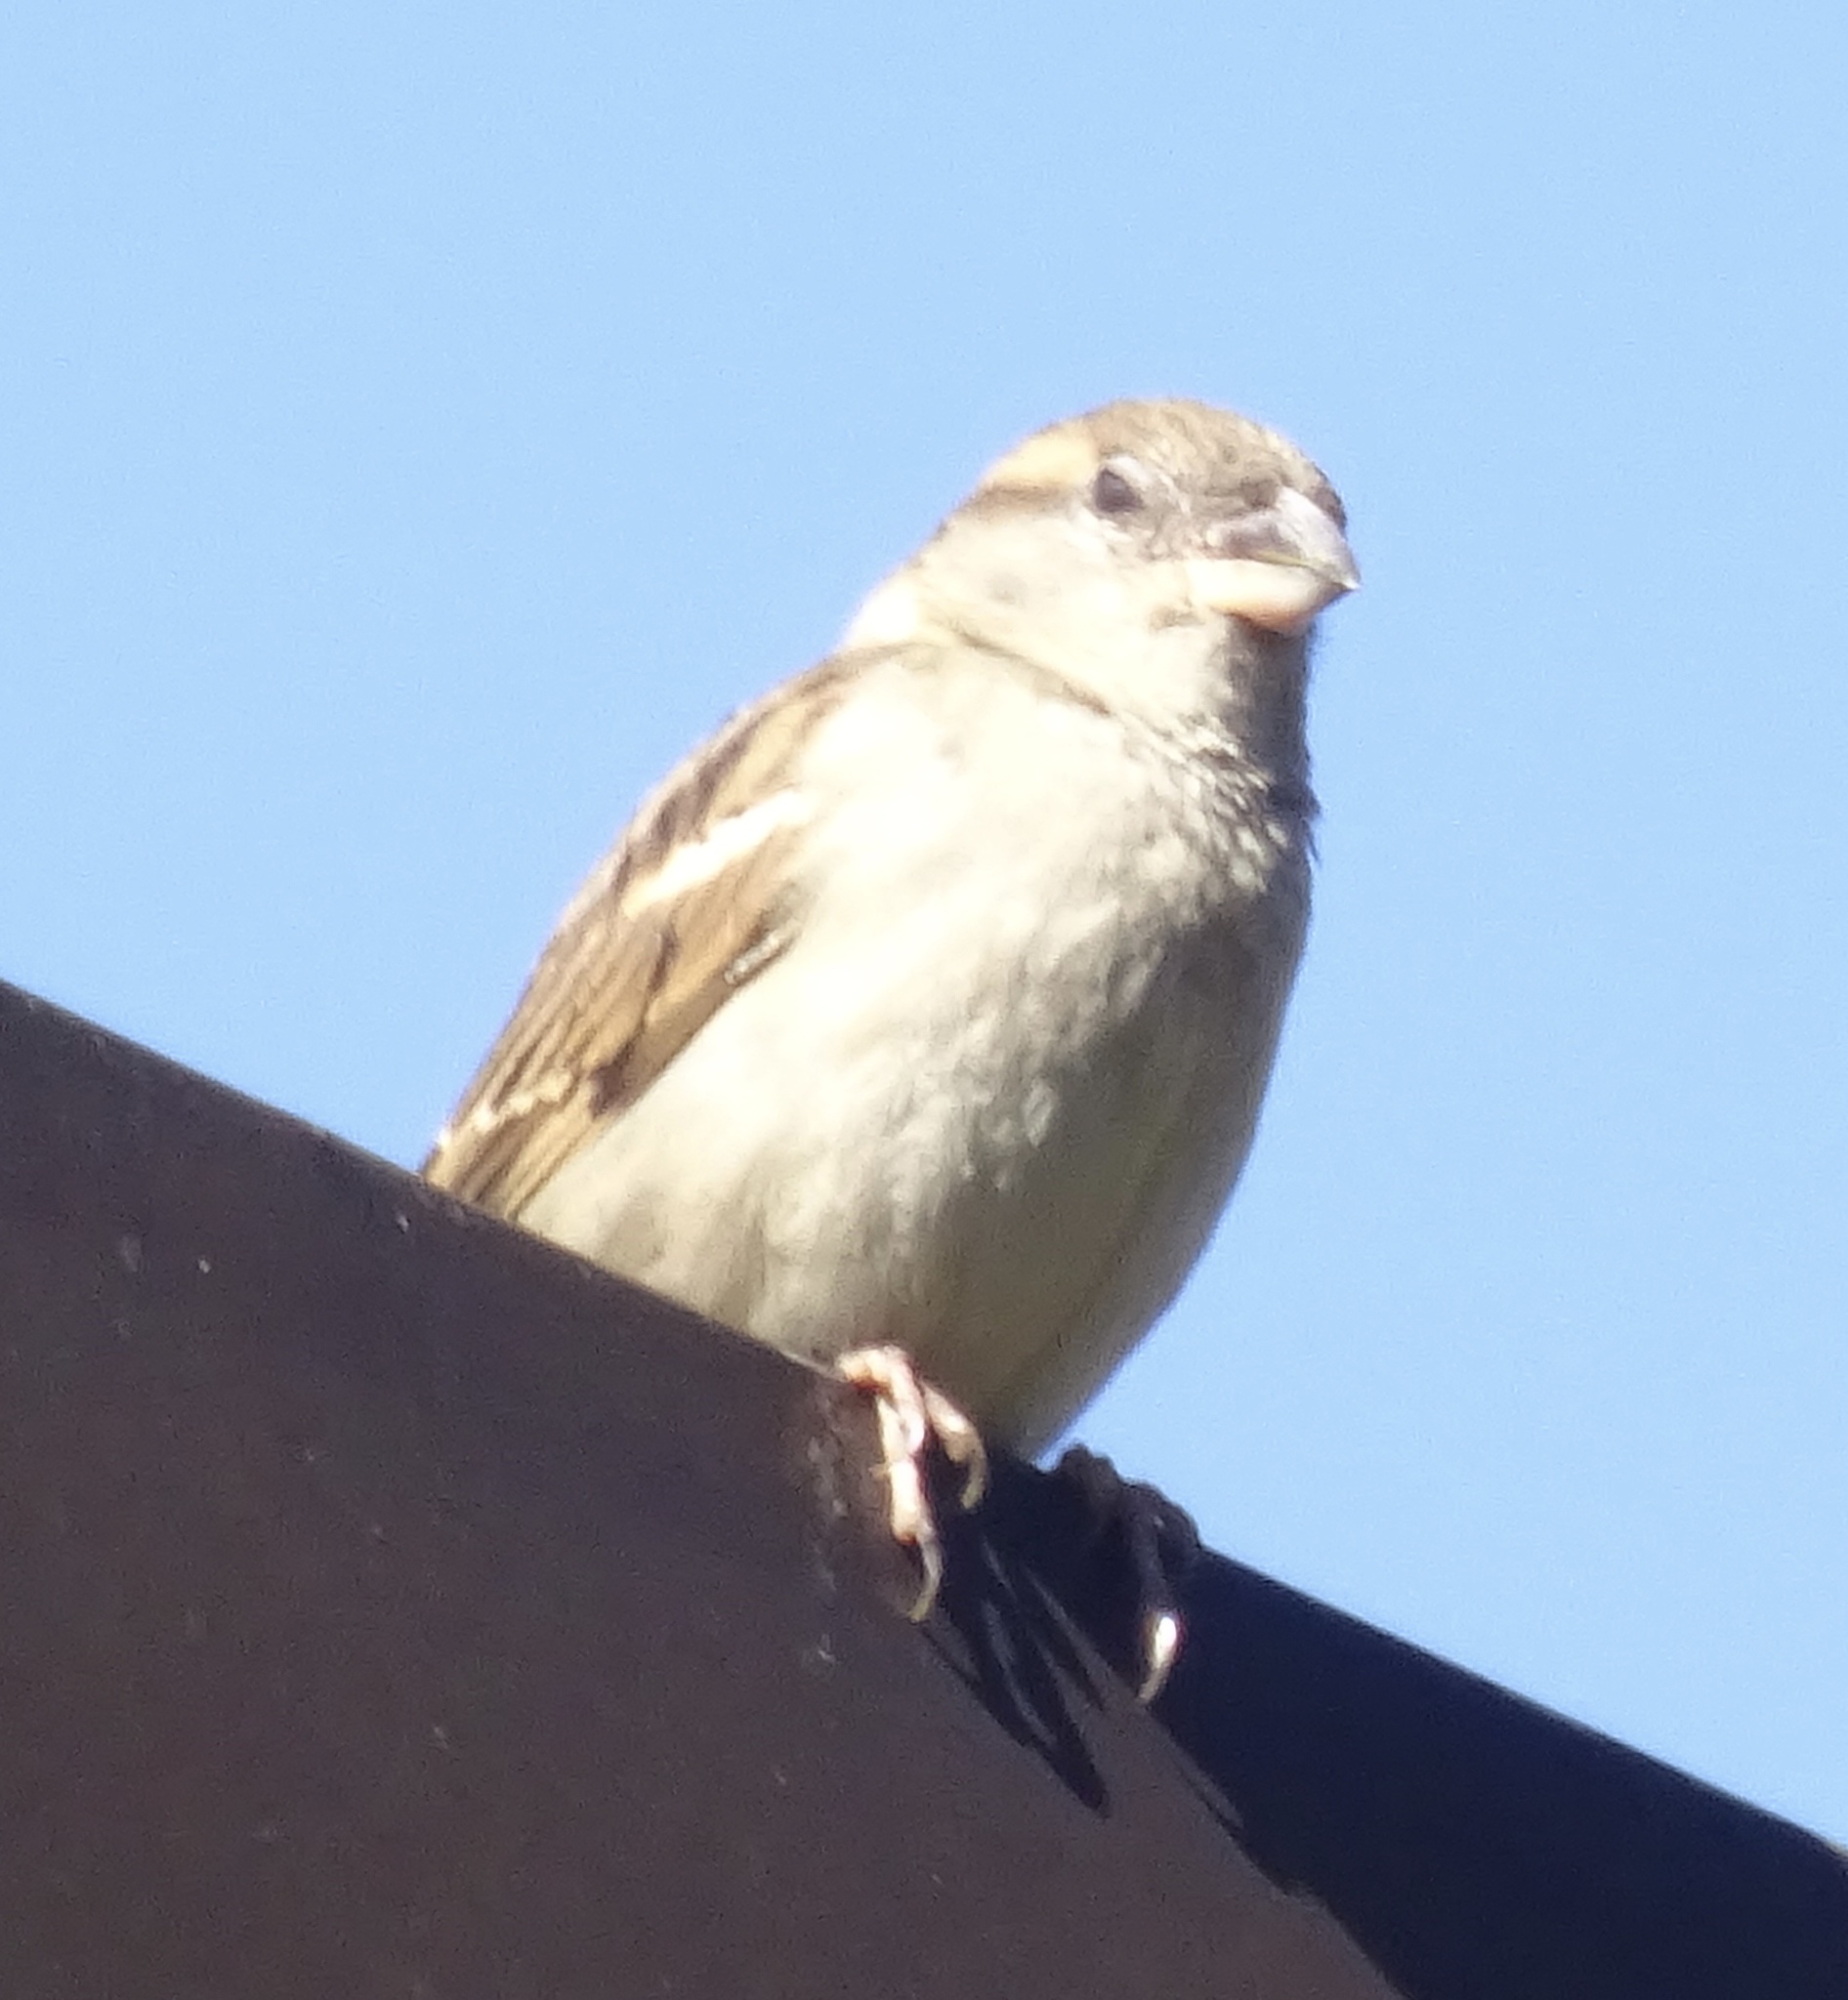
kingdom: Animalia
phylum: Chordata
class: Aves
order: Passeriformes
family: Passeridae
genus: Passer
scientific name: Passer domesticus
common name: House sparrow
